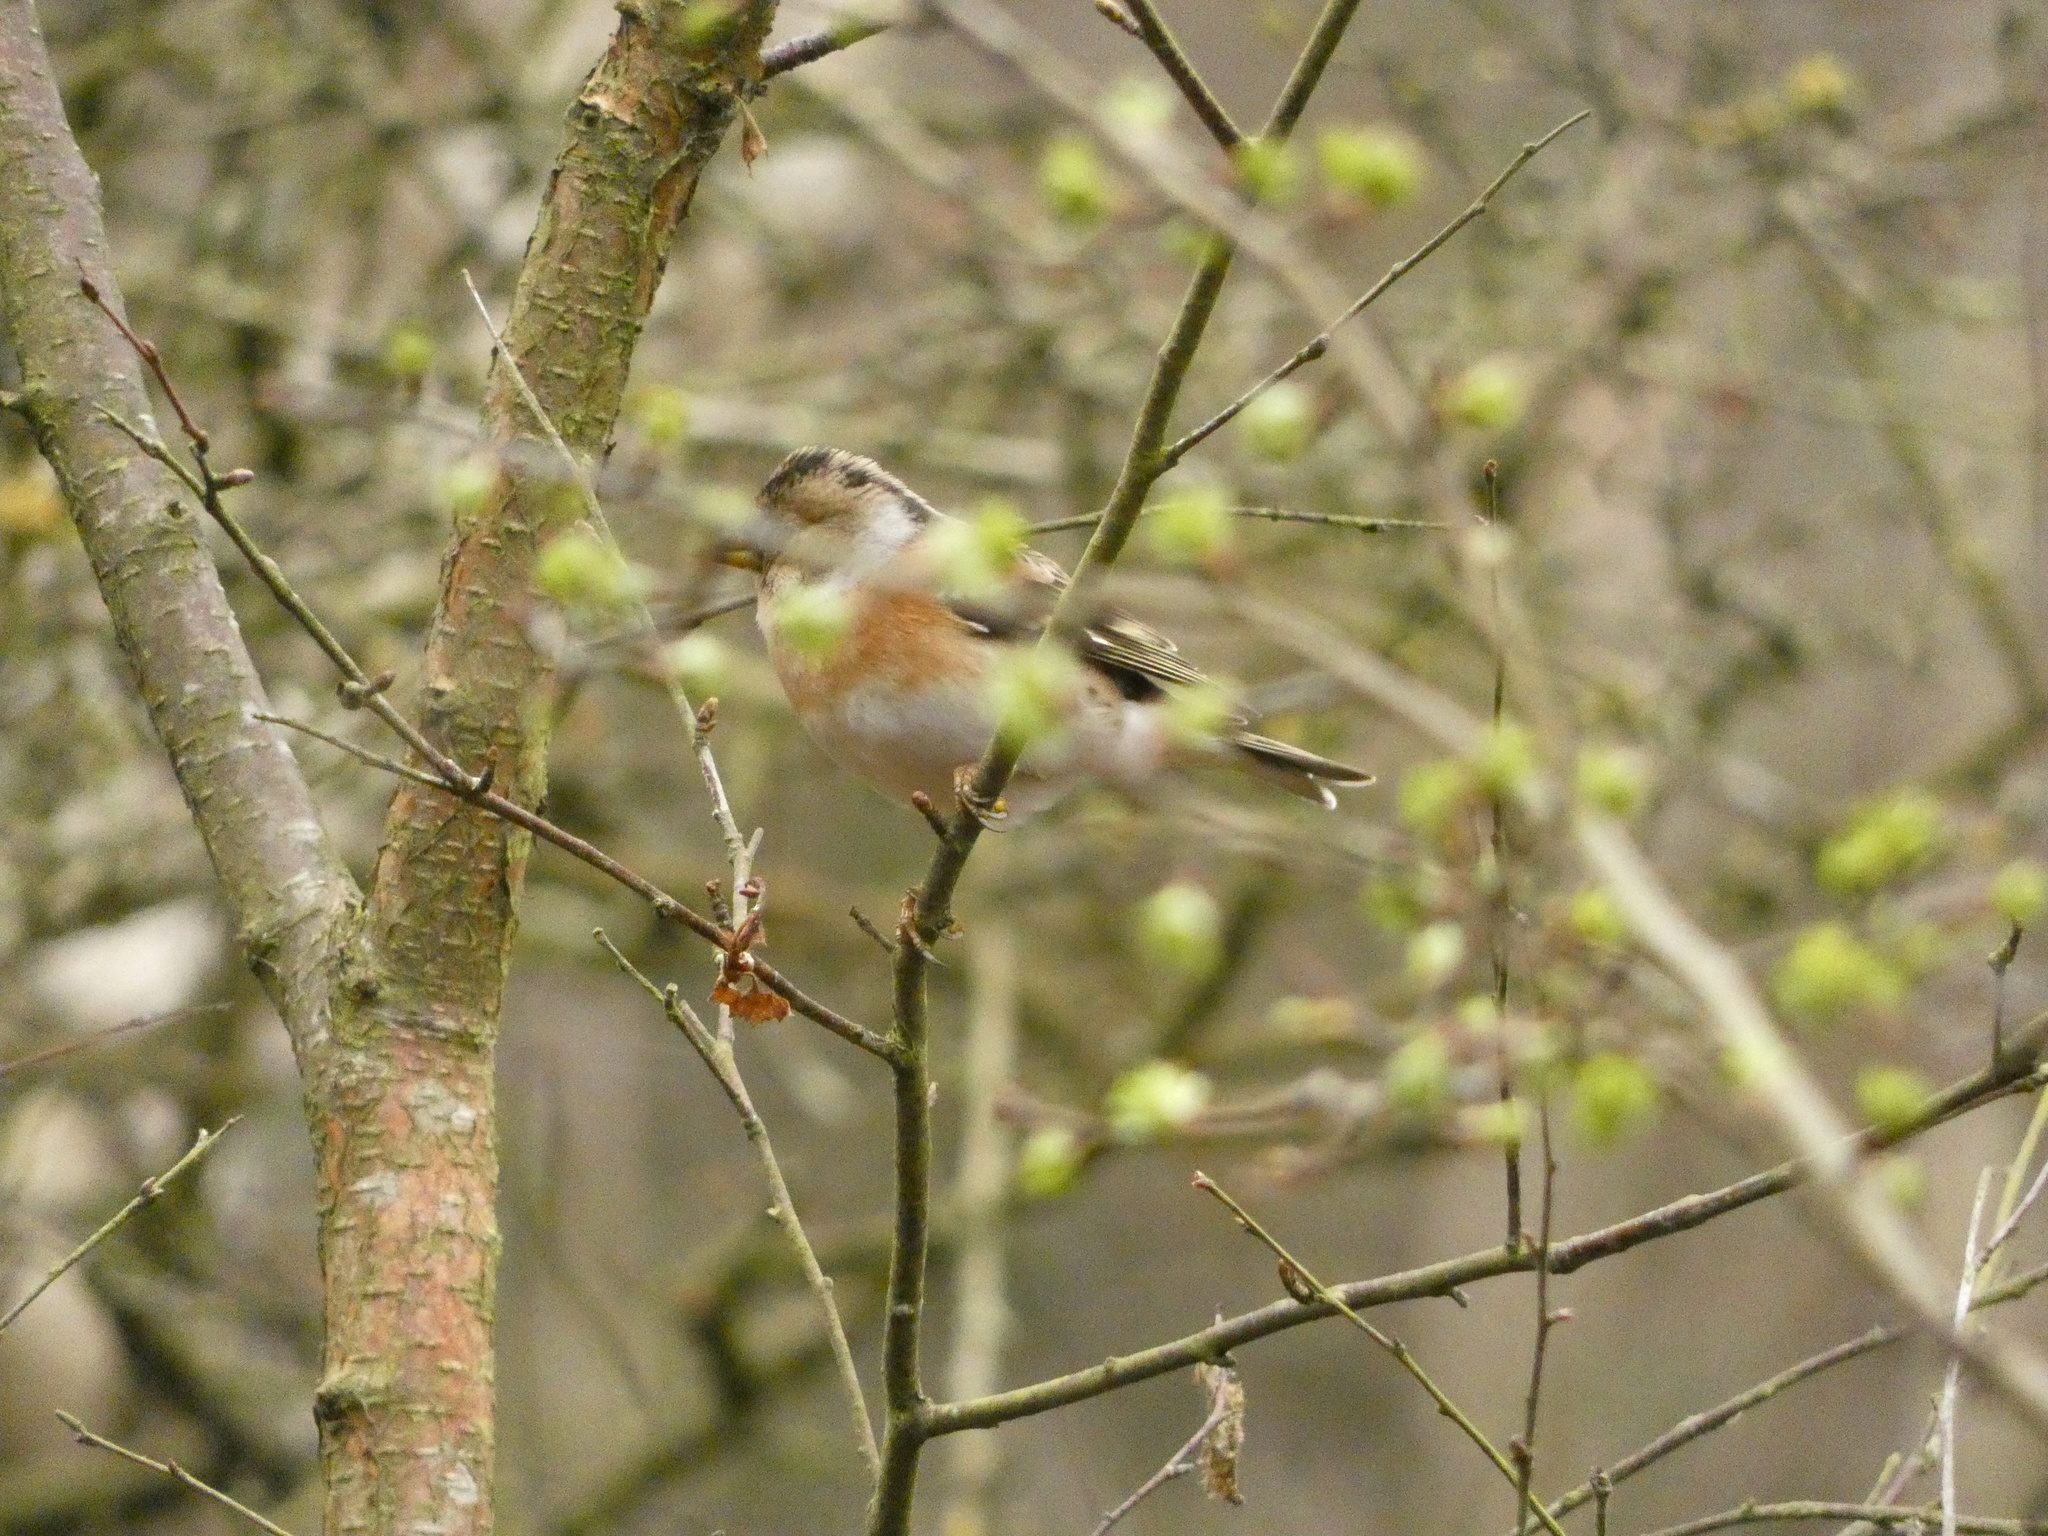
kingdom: Animalia
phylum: Chordata
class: Aves
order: Passeriformes
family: Fringillidae
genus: Fringilla
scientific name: Fringilla montifringilla
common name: Brambling
